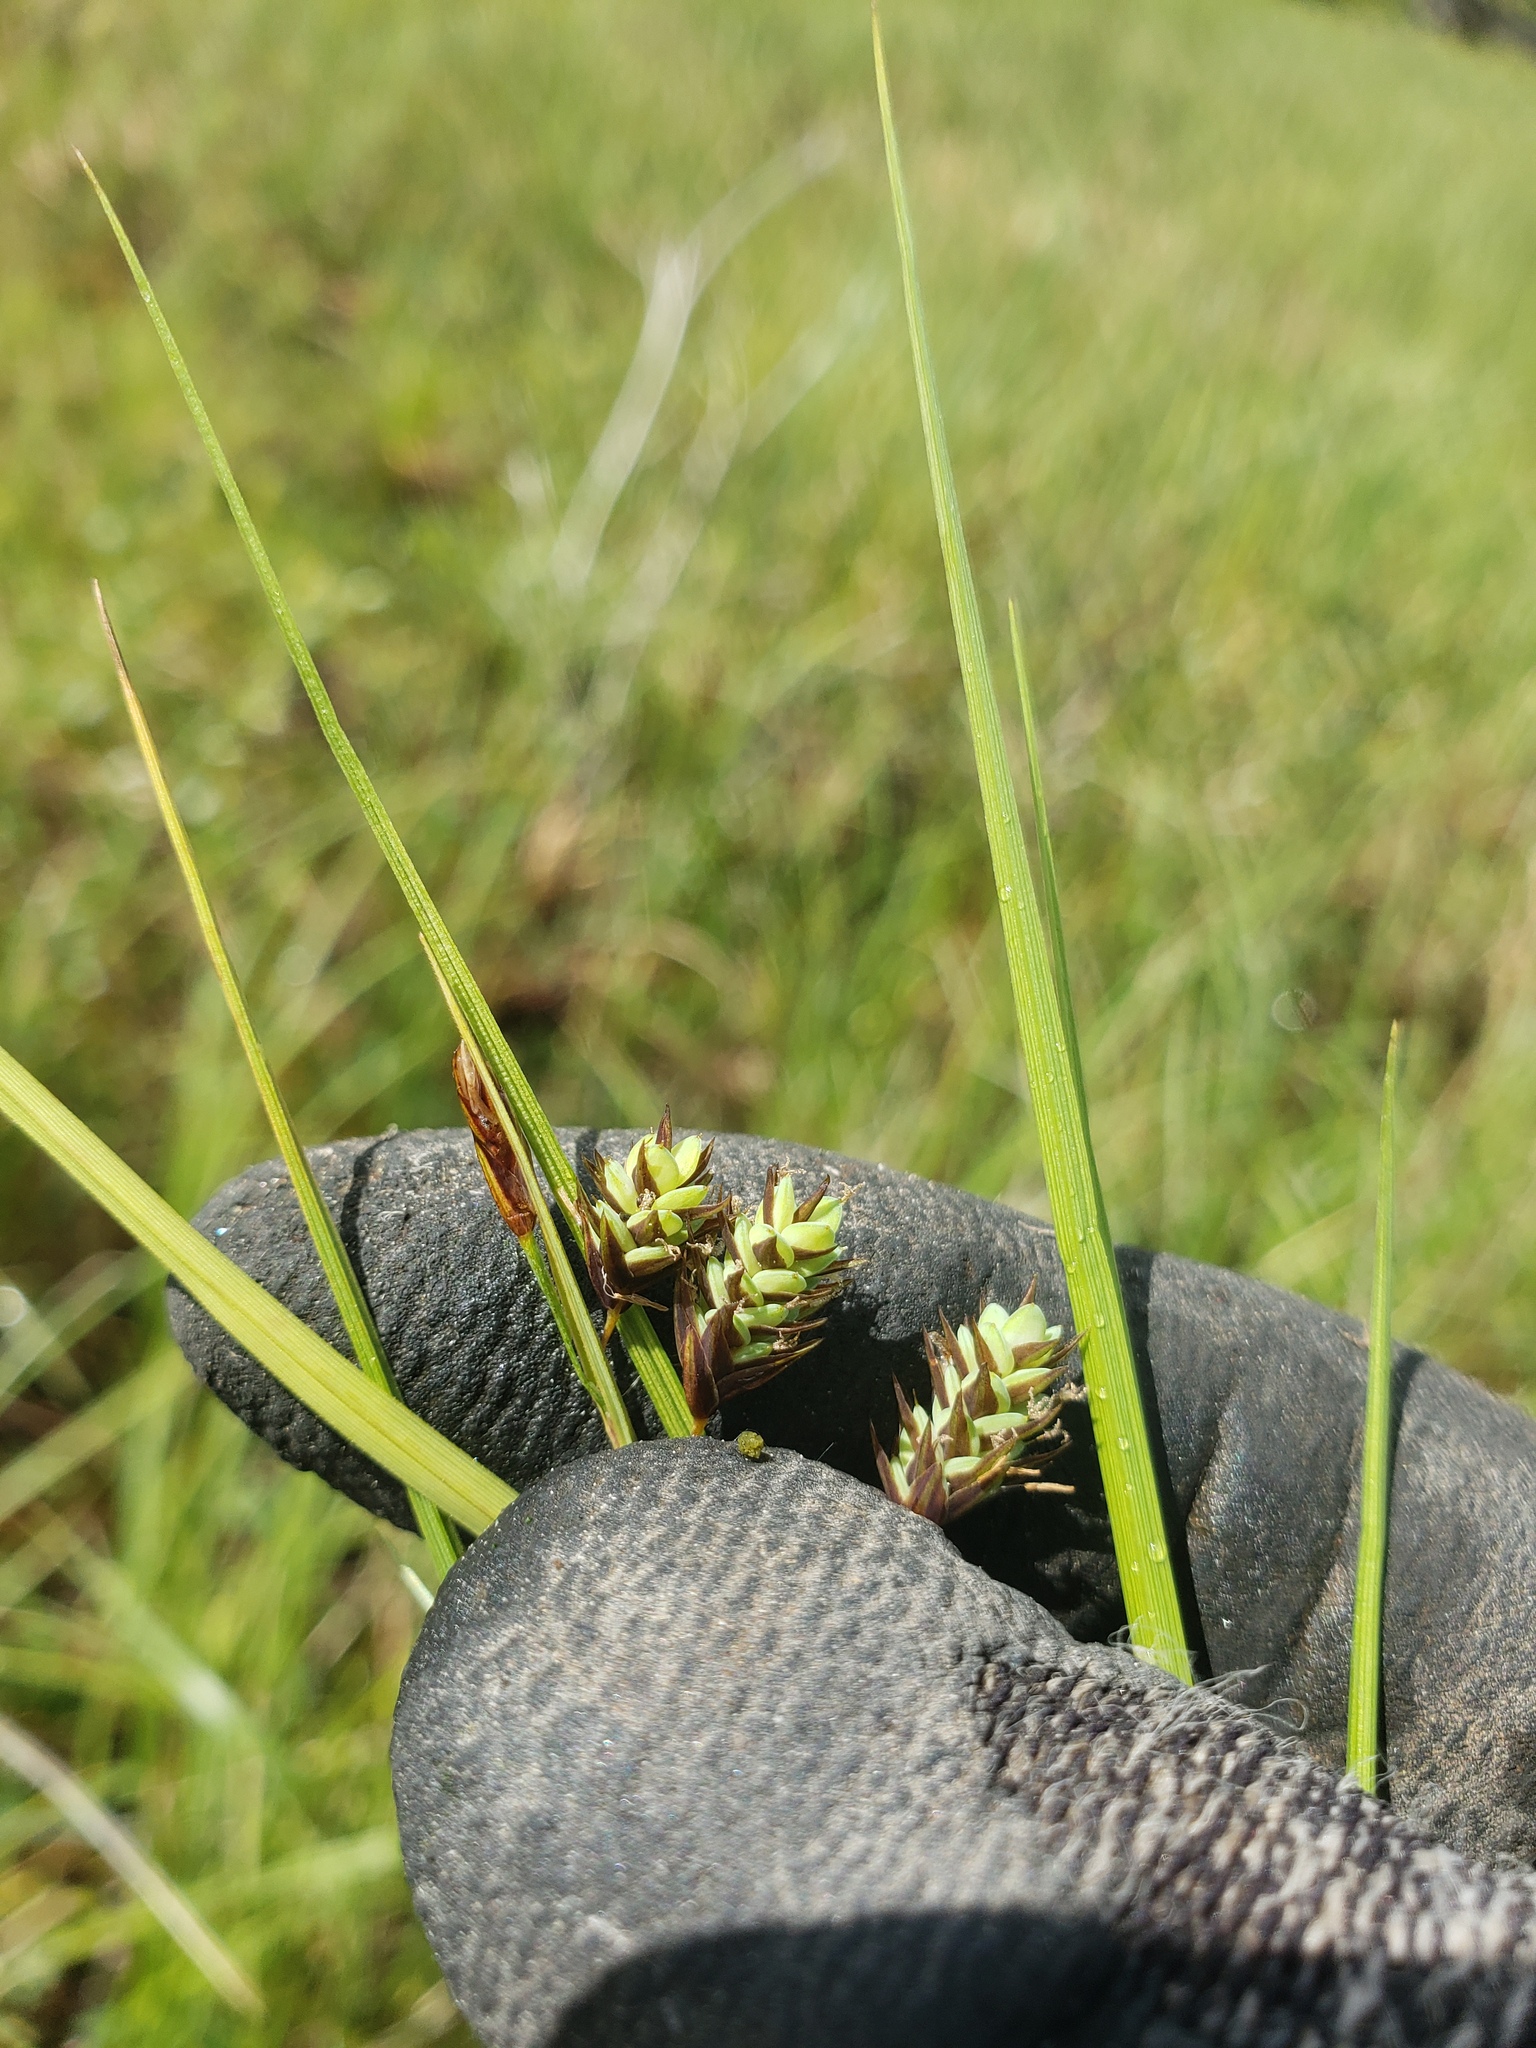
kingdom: Plantae
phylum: Tracheophyta
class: Liliopsida
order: Poales
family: Cyperaceae
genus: Carex
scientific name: Carex magellanica
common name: Bog sedge
